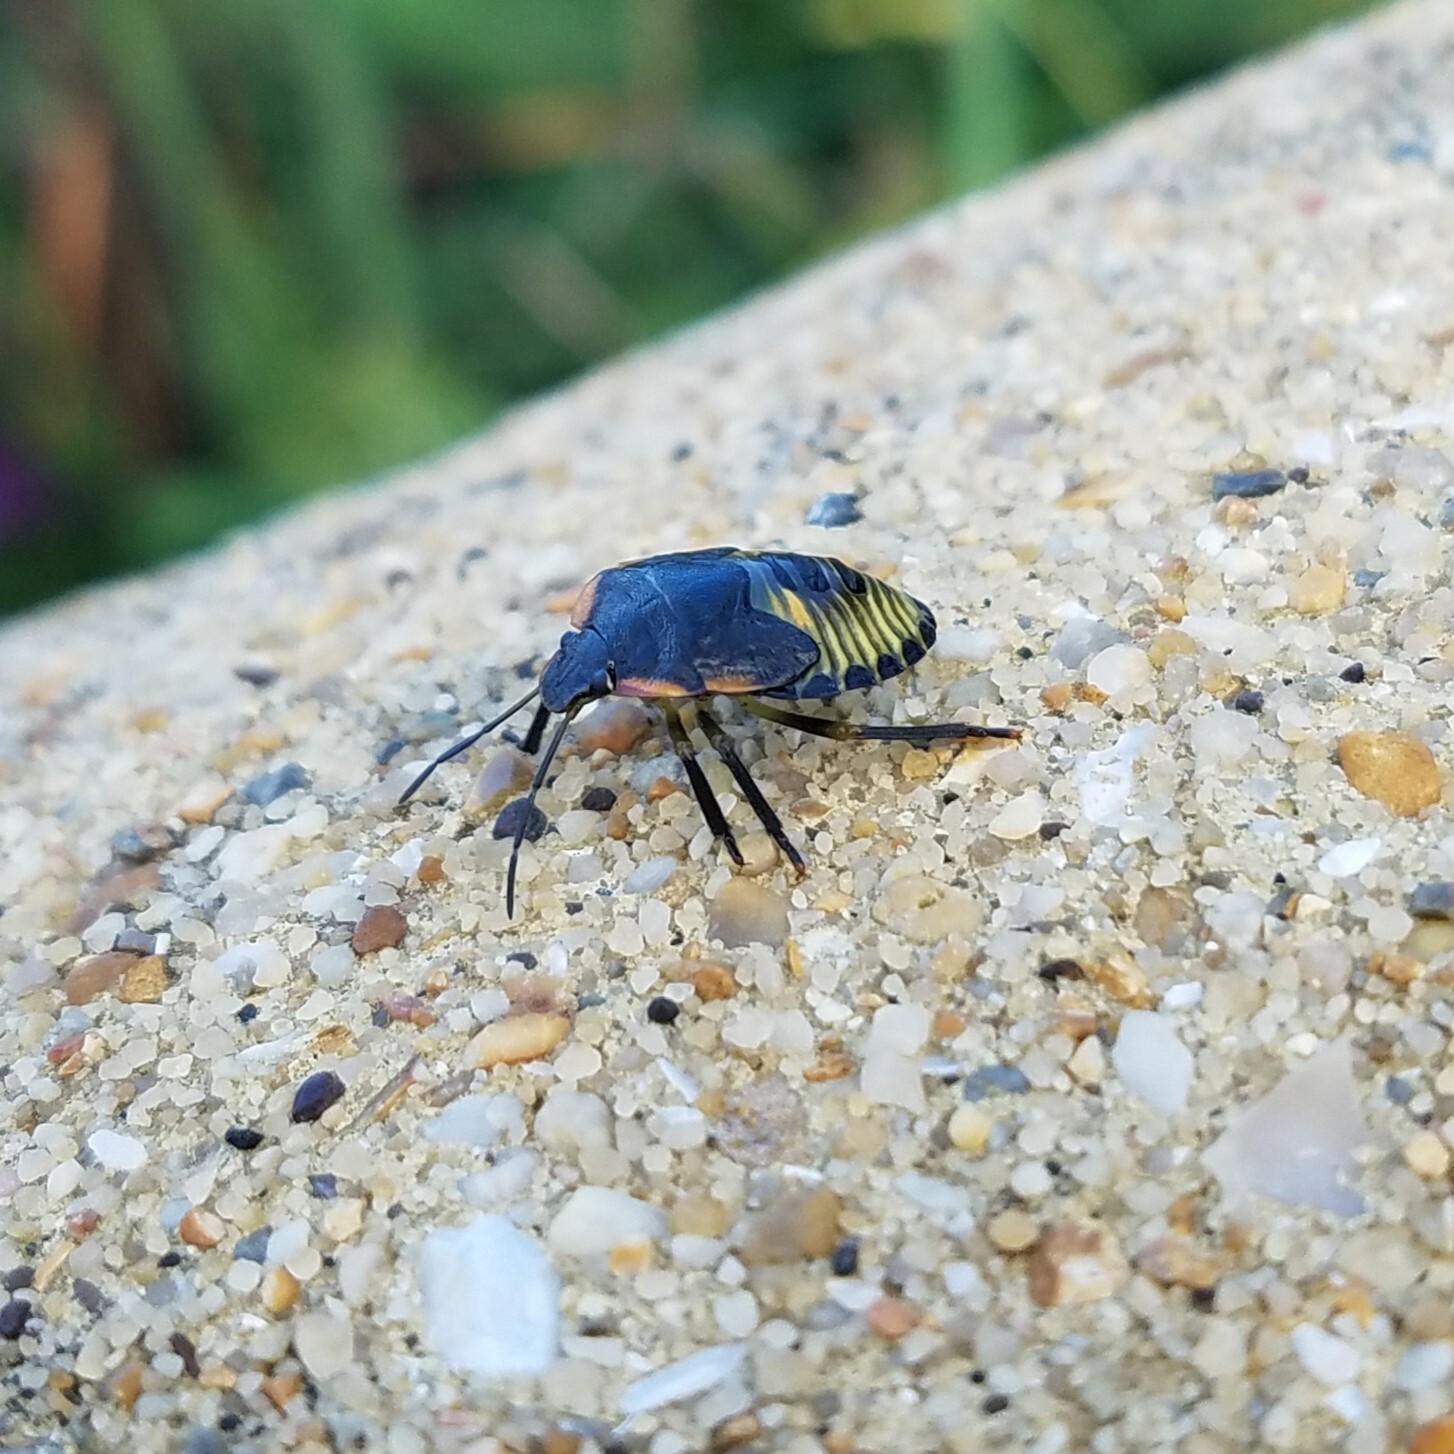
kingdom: Animalia
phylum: Arthropoda
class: Insecta
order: Hemiptera
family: Pentatomidae
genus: Chinavia
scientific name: Chinavia hilaris
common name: Green stink bug
